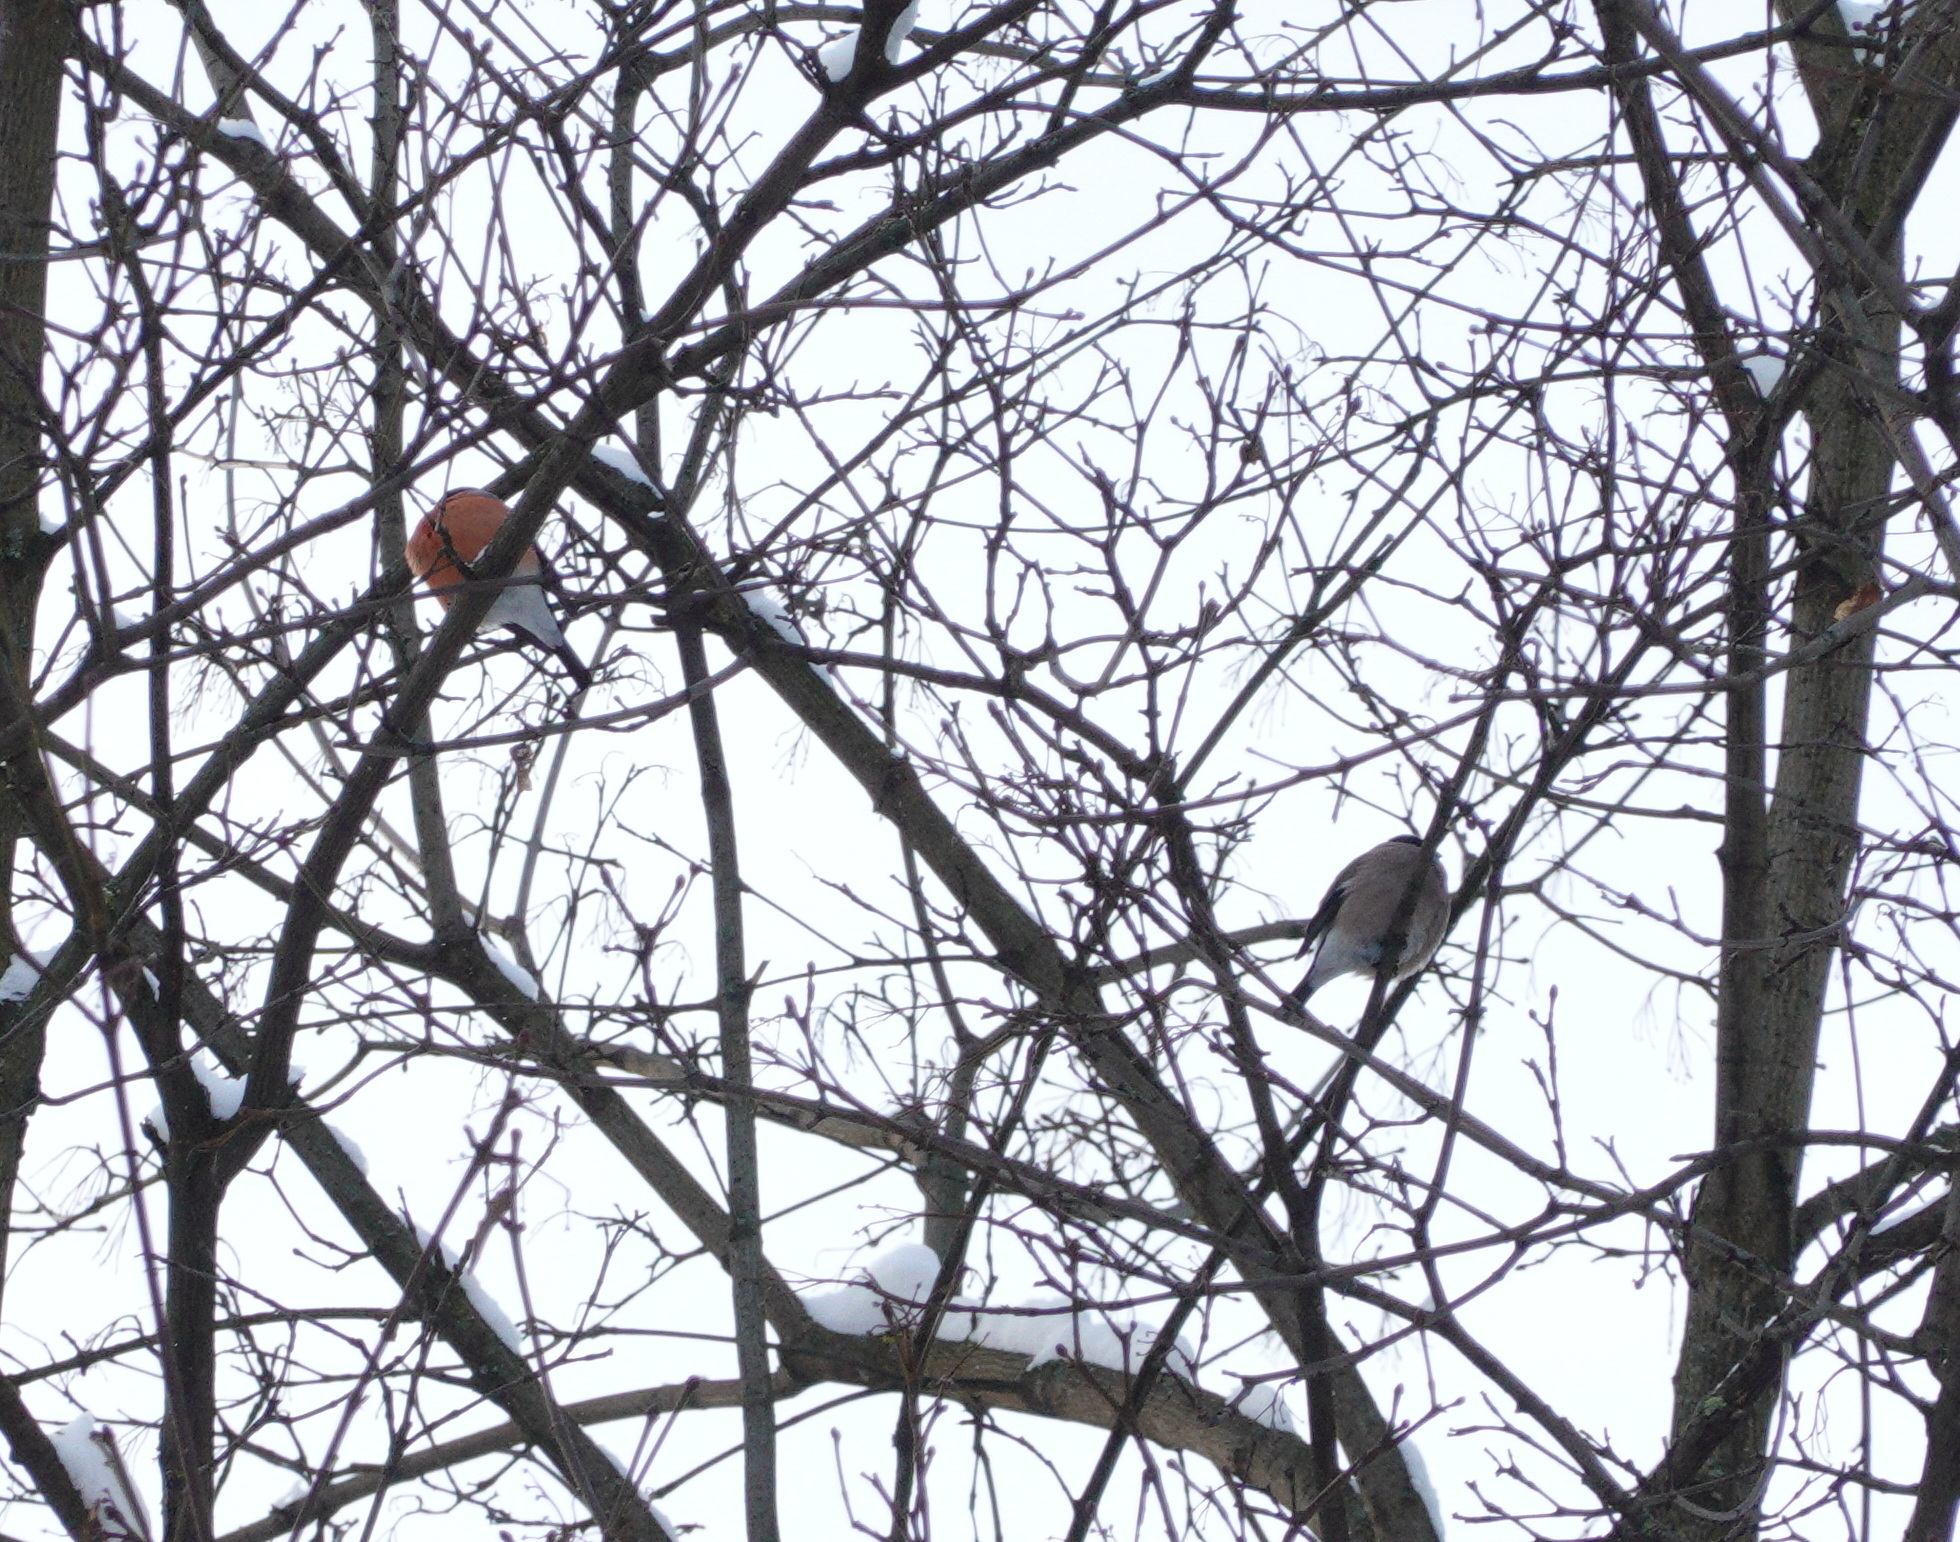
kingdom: Animalia
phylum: Chordata
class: Aves
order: Passeriformes
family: Fringillidae
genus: Pyrrhula
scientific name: Pyrrhula pyrrhula
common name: Eurasian bullfinch
